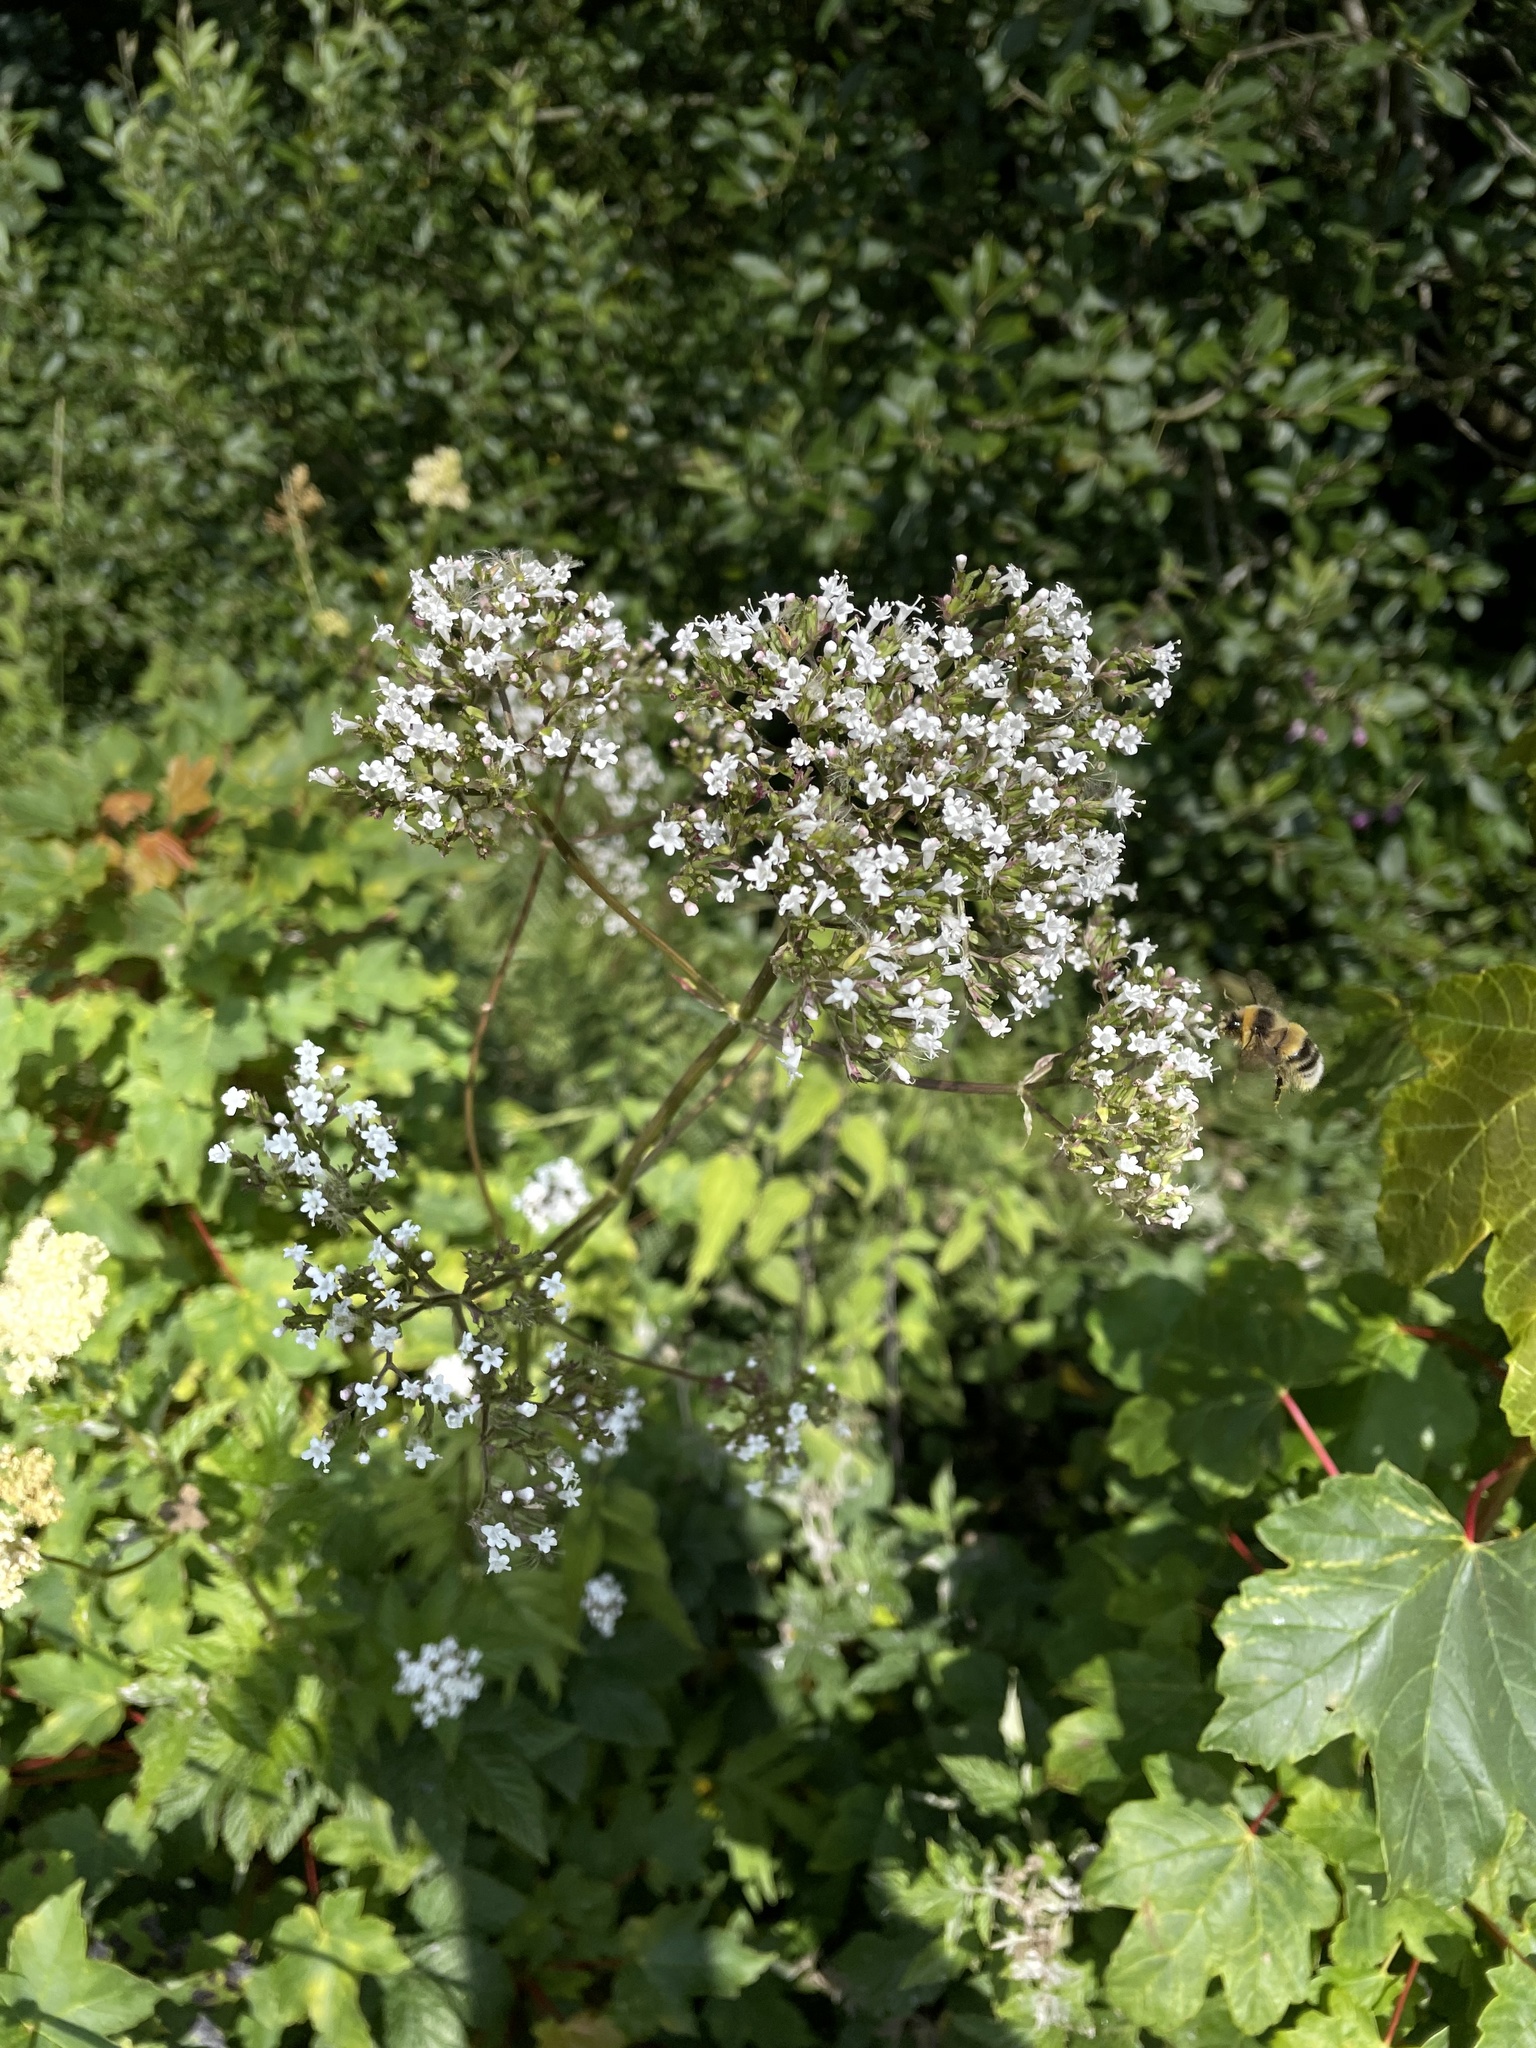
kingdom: Plantae
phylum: Tracheophyta
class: Magnoliopsida
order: Dipsacales
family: Caprifoliaceae
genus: Valeriana
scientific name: Valeriana officinalis
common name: Common valerian
